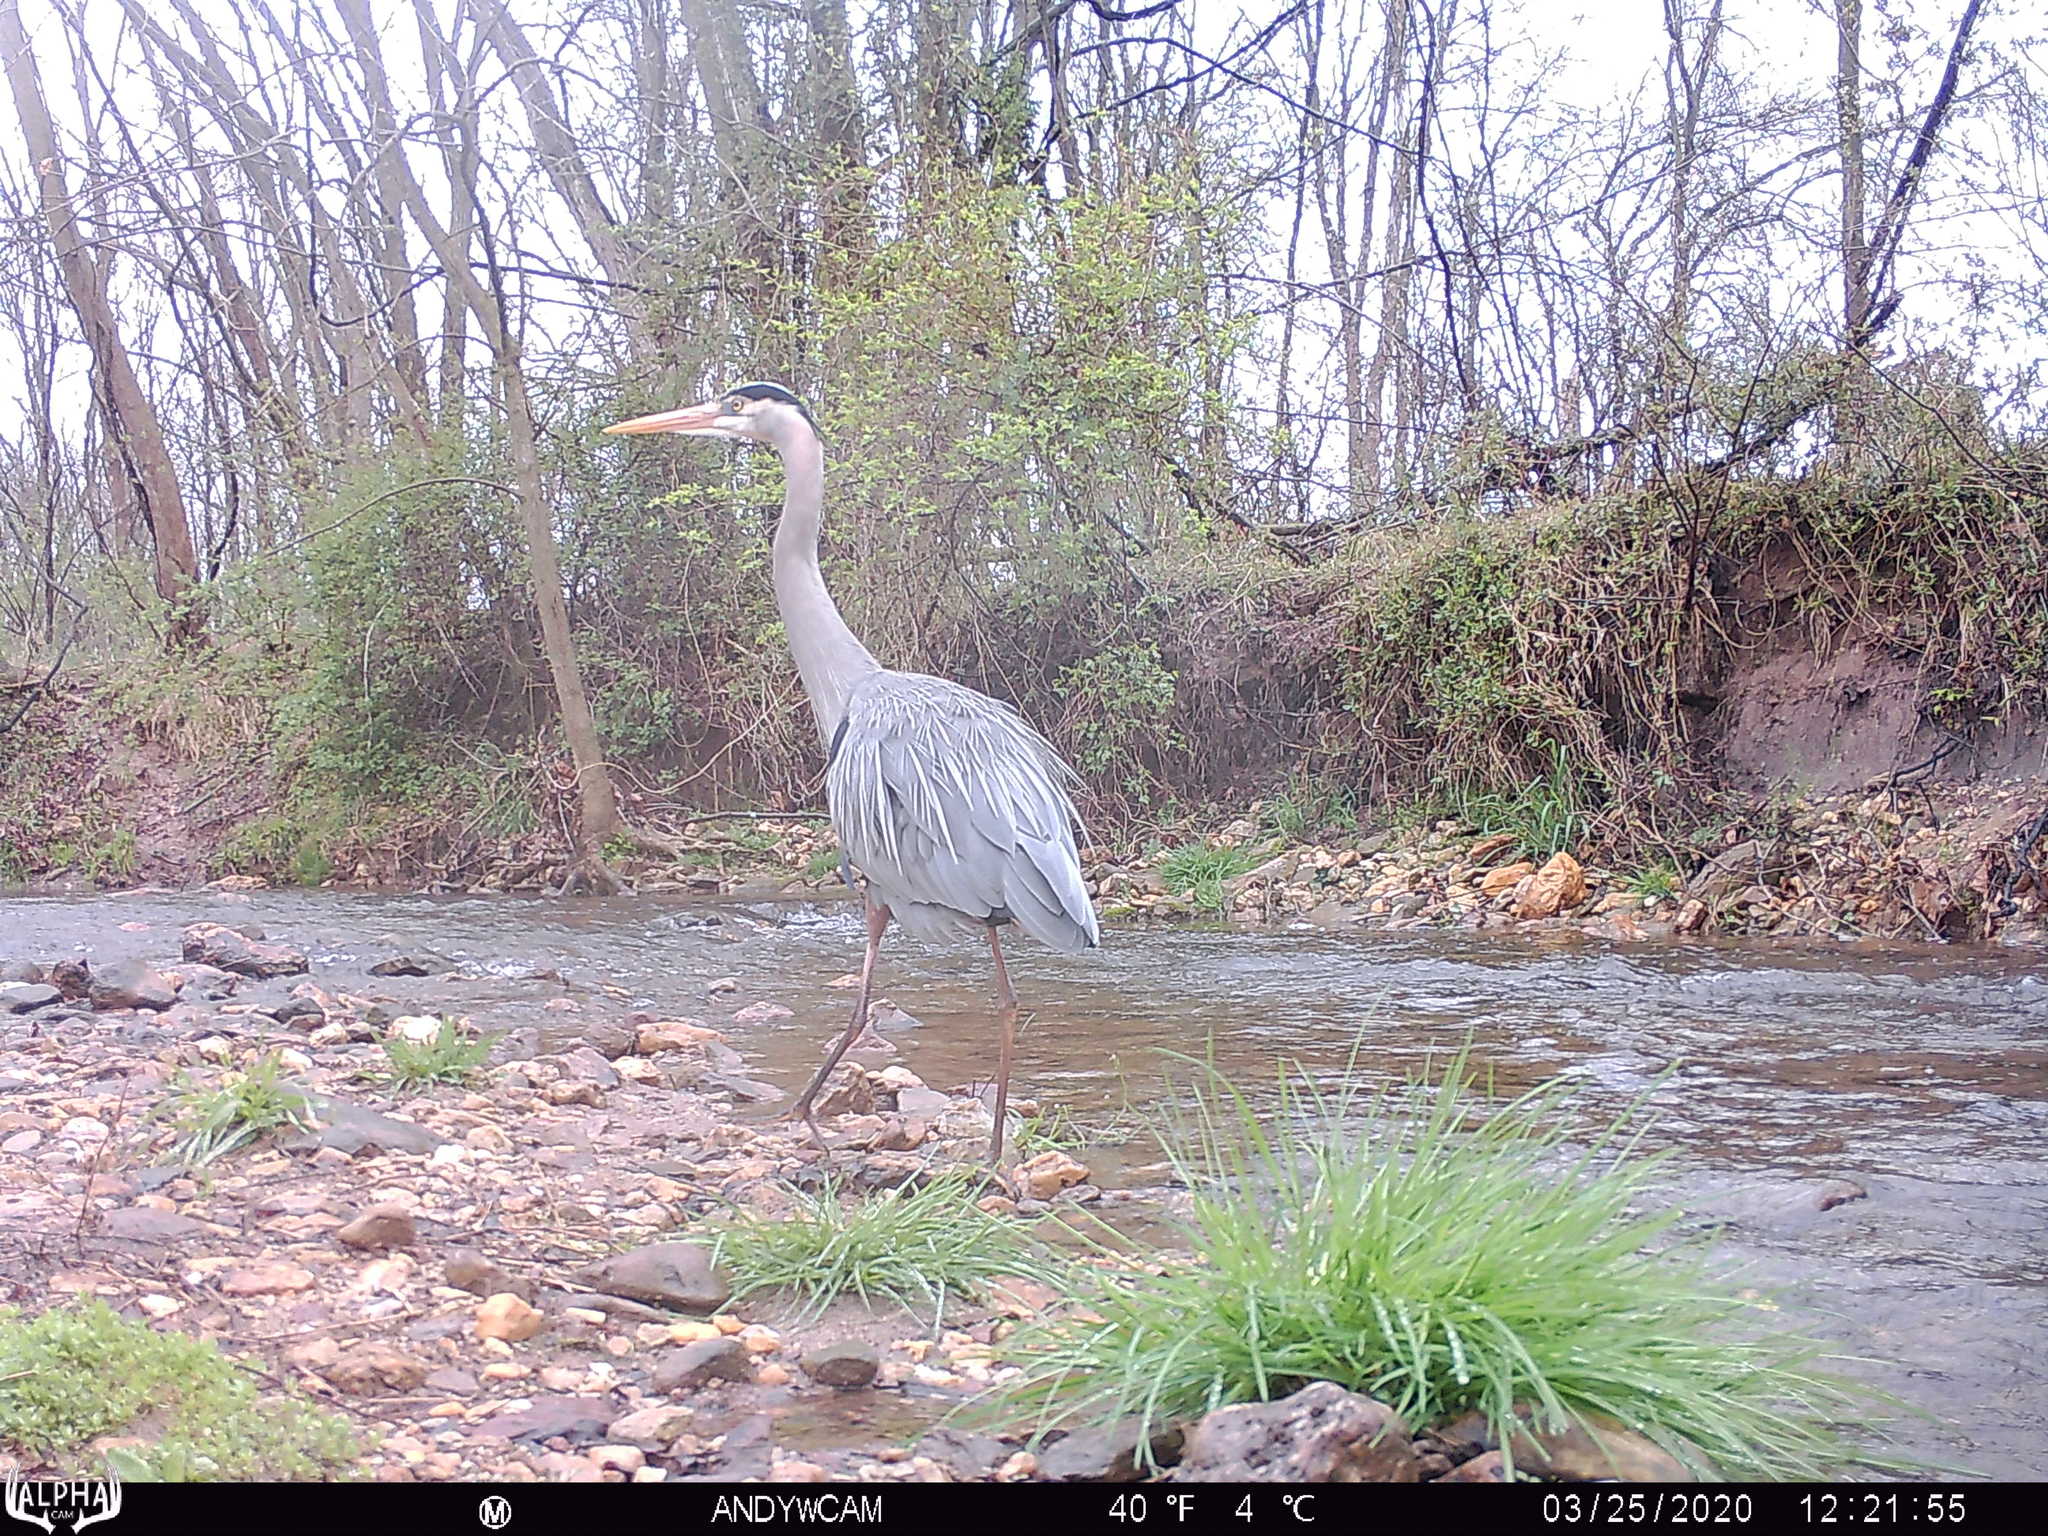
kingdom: Animalia
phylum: Chordata
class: Aves
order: Pelecaniformes
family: Ardeidae
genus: Ardea
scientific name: Ardea herodias
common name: Great blue heron
